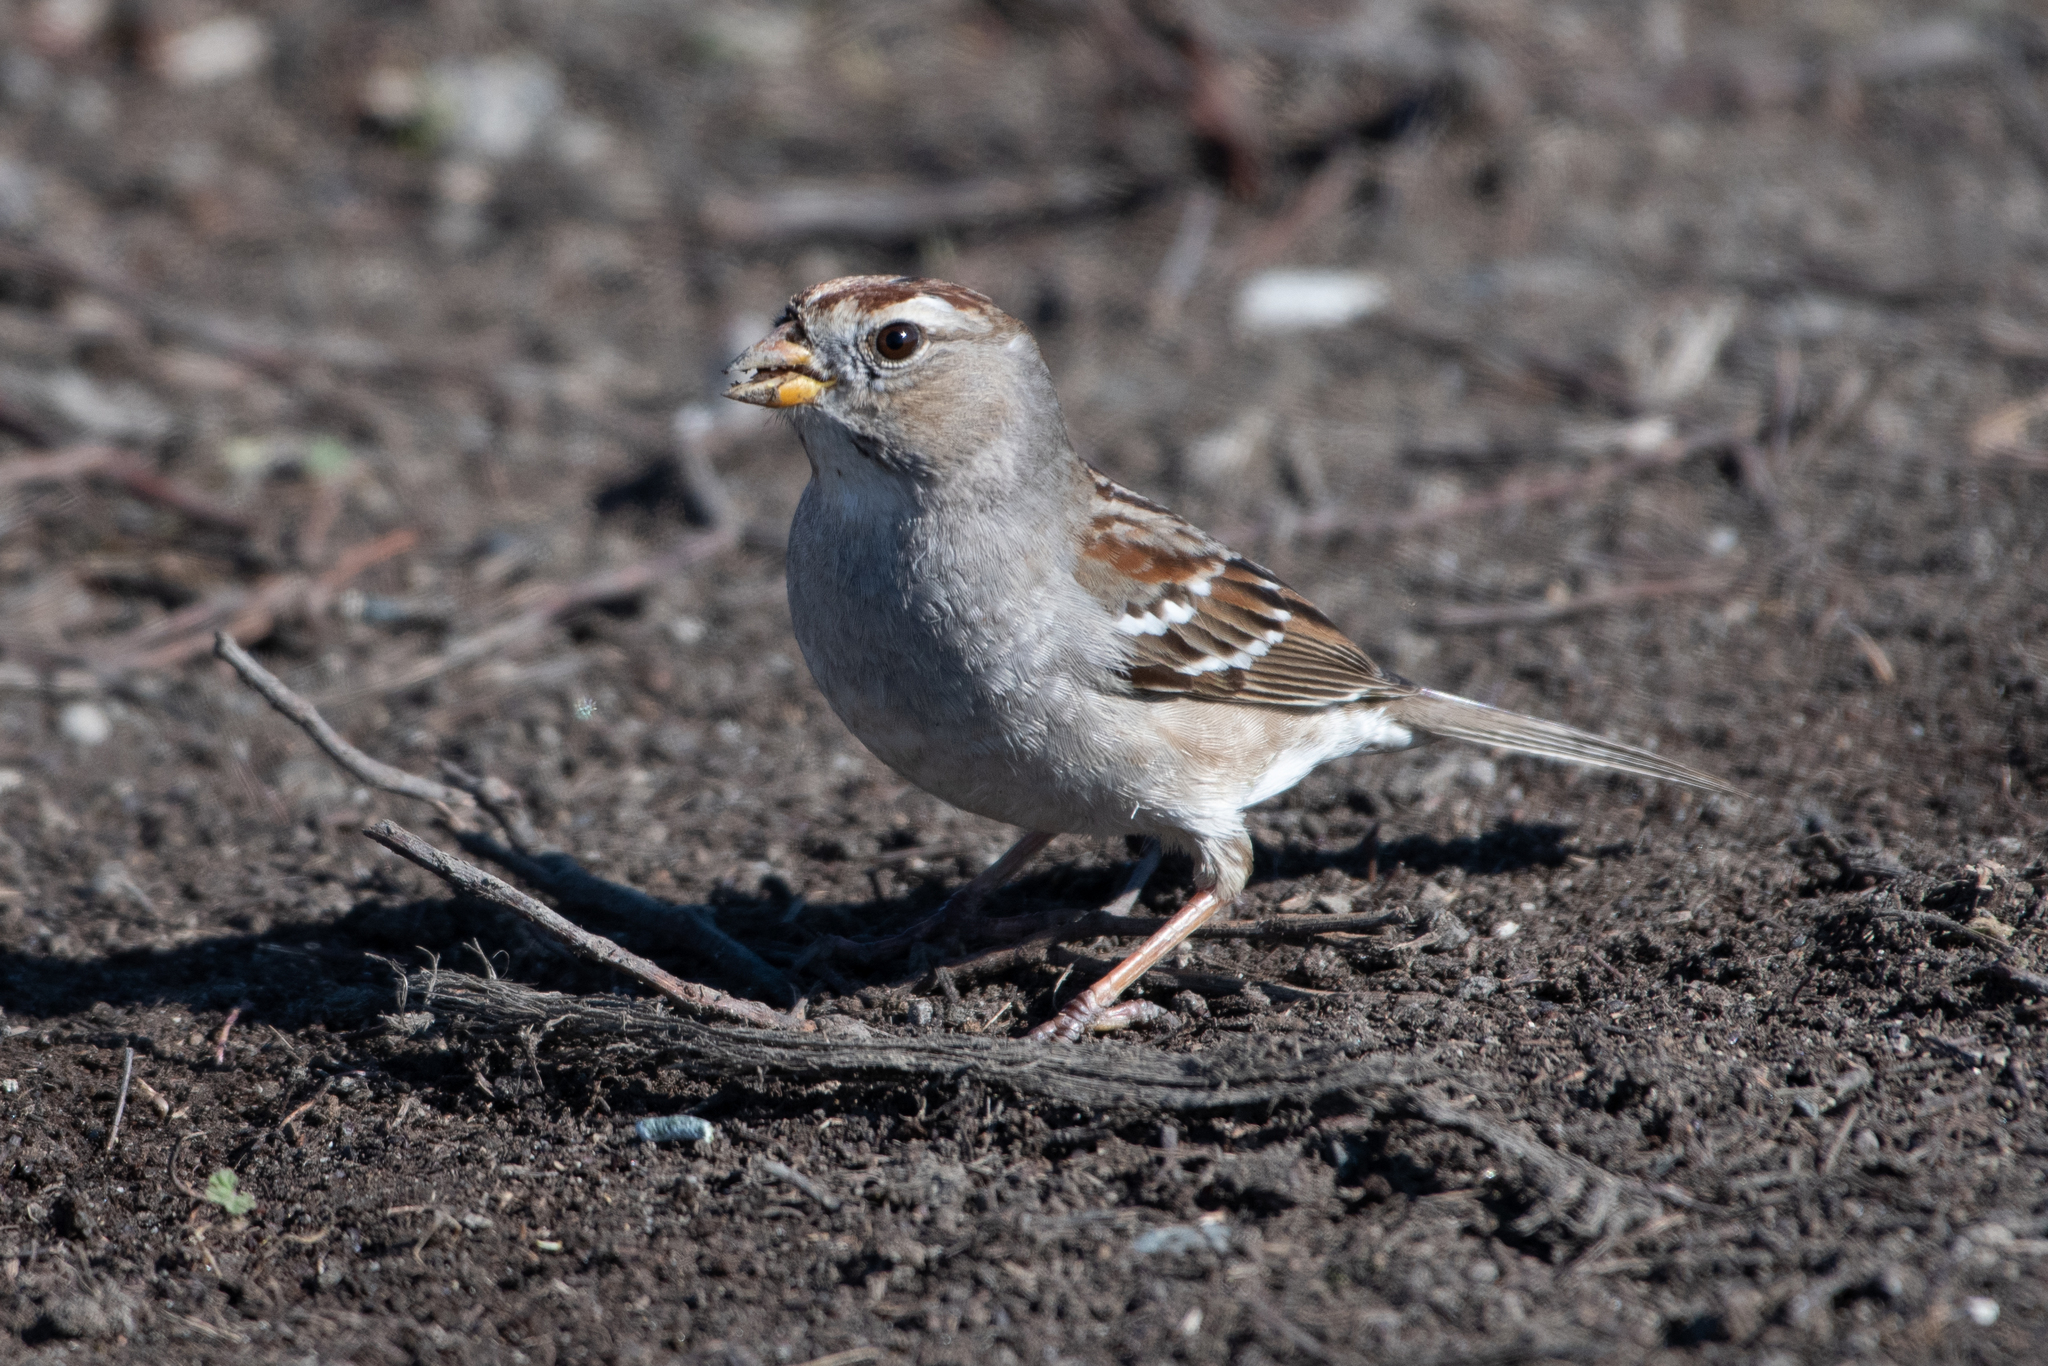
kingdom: Animalia
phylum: Chordata
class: Aves
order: Passeriformes
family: Passerellidae
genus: Zonotrichia
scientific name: Zonotrichia leucophrys
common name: White-crowned sparrow
